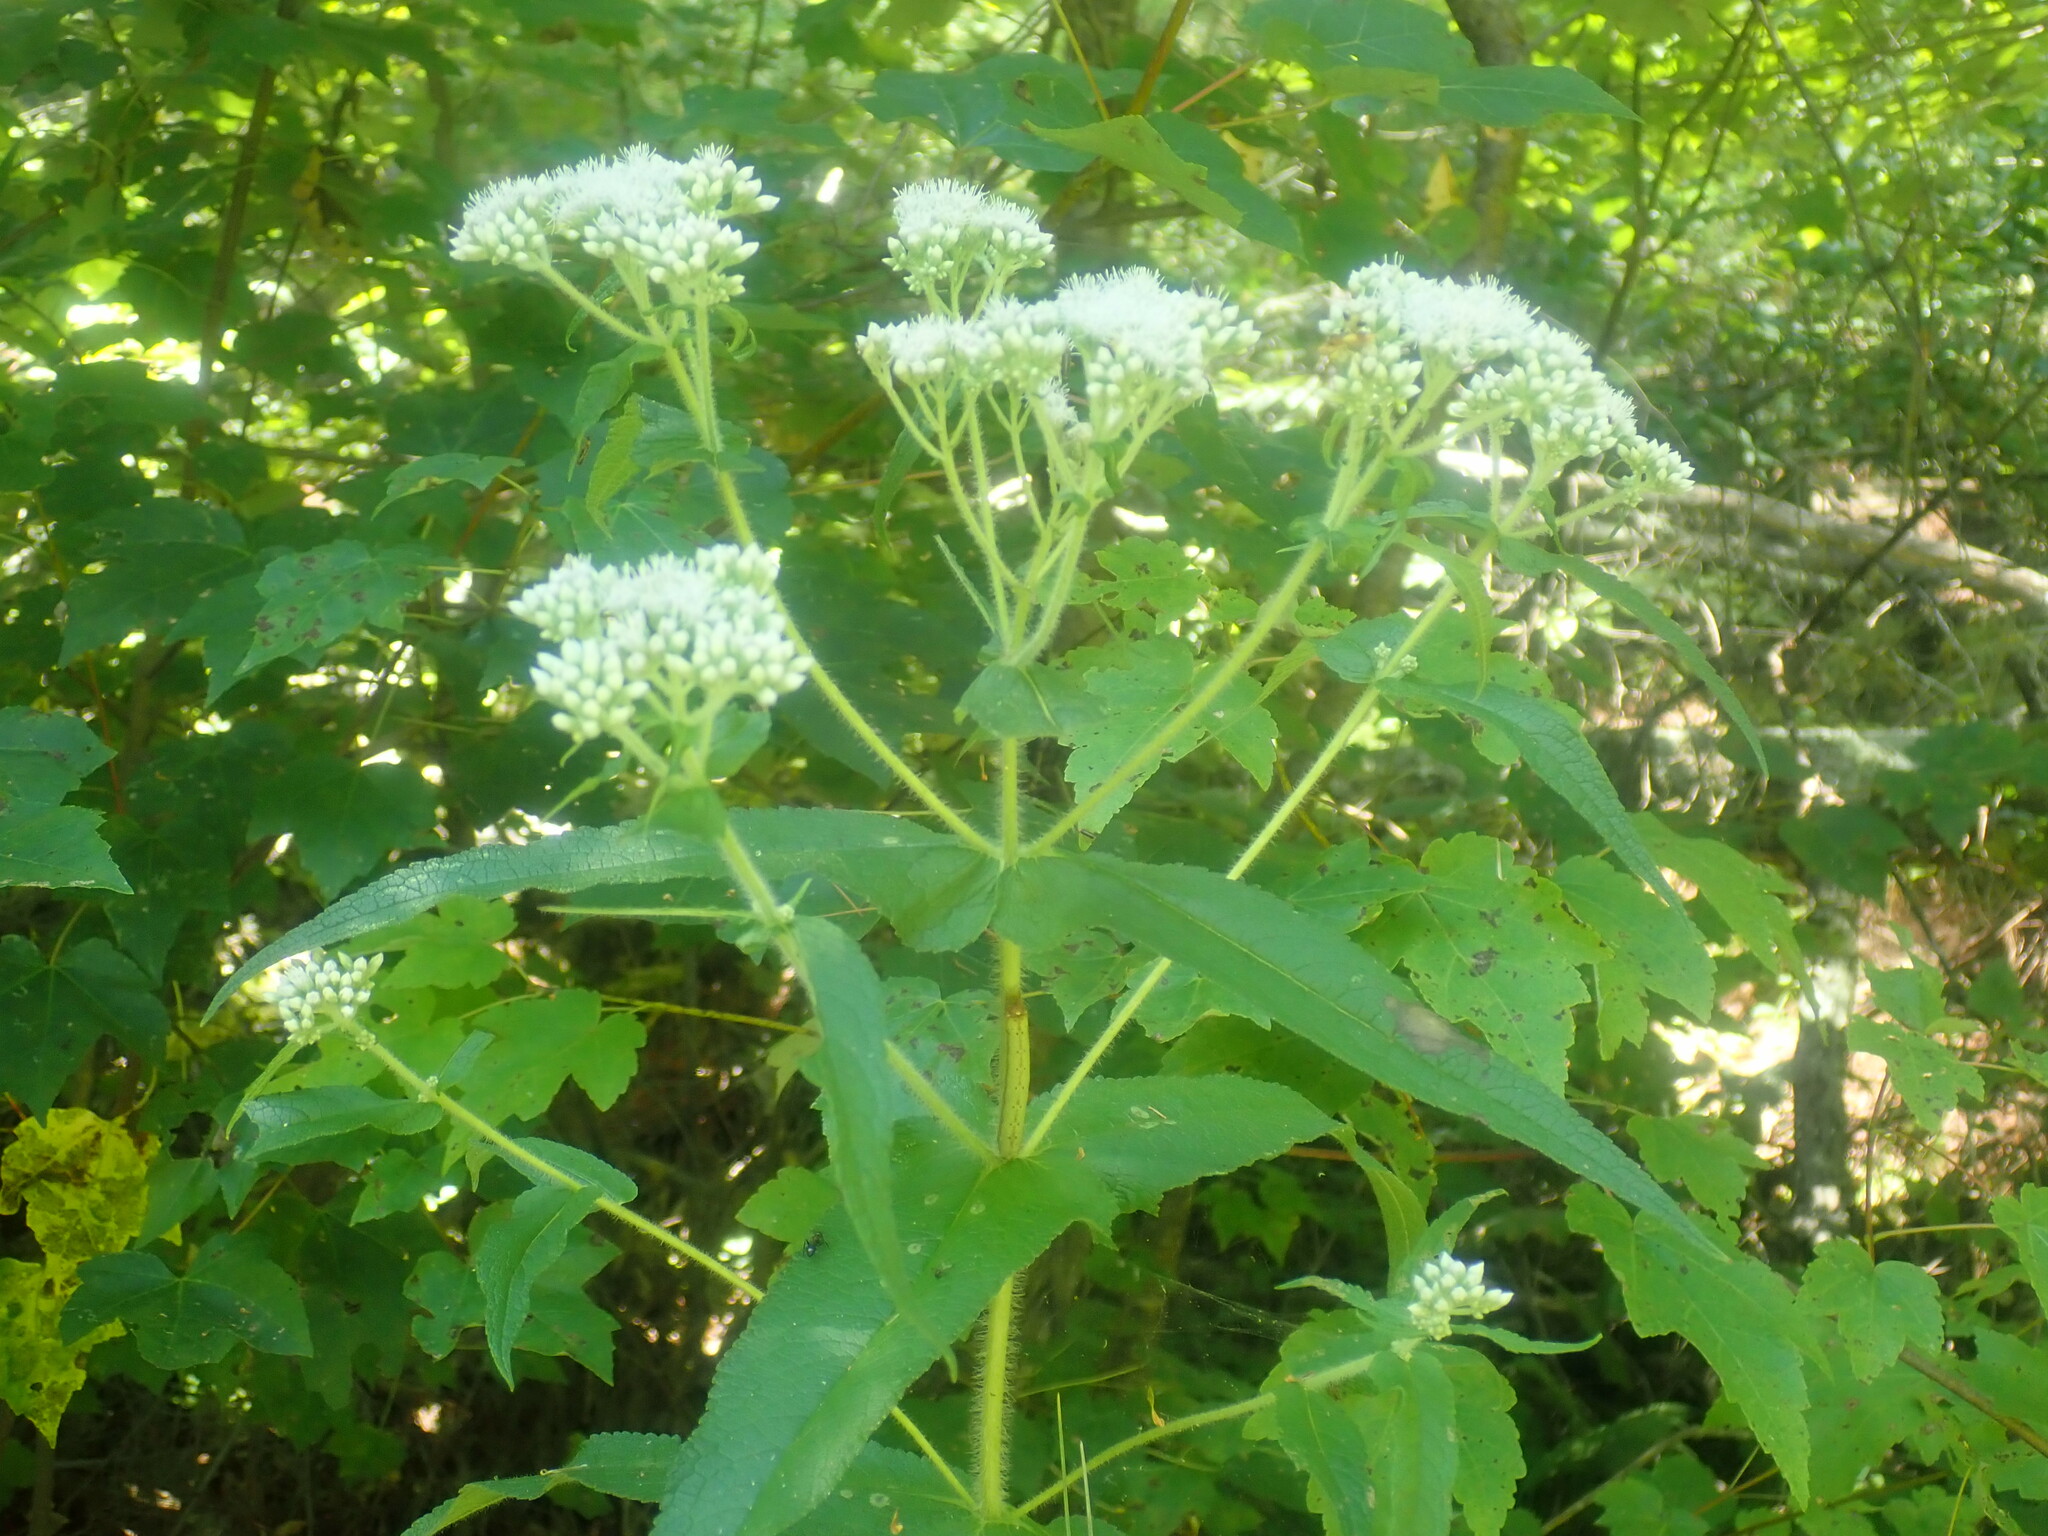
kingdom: Plantae
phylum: Tracheophyta
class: Magnoliopsida
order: Asterales
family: Asteraceae
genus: Eupatorium
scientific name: Eupatorium perfoliatum
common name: Boneset
